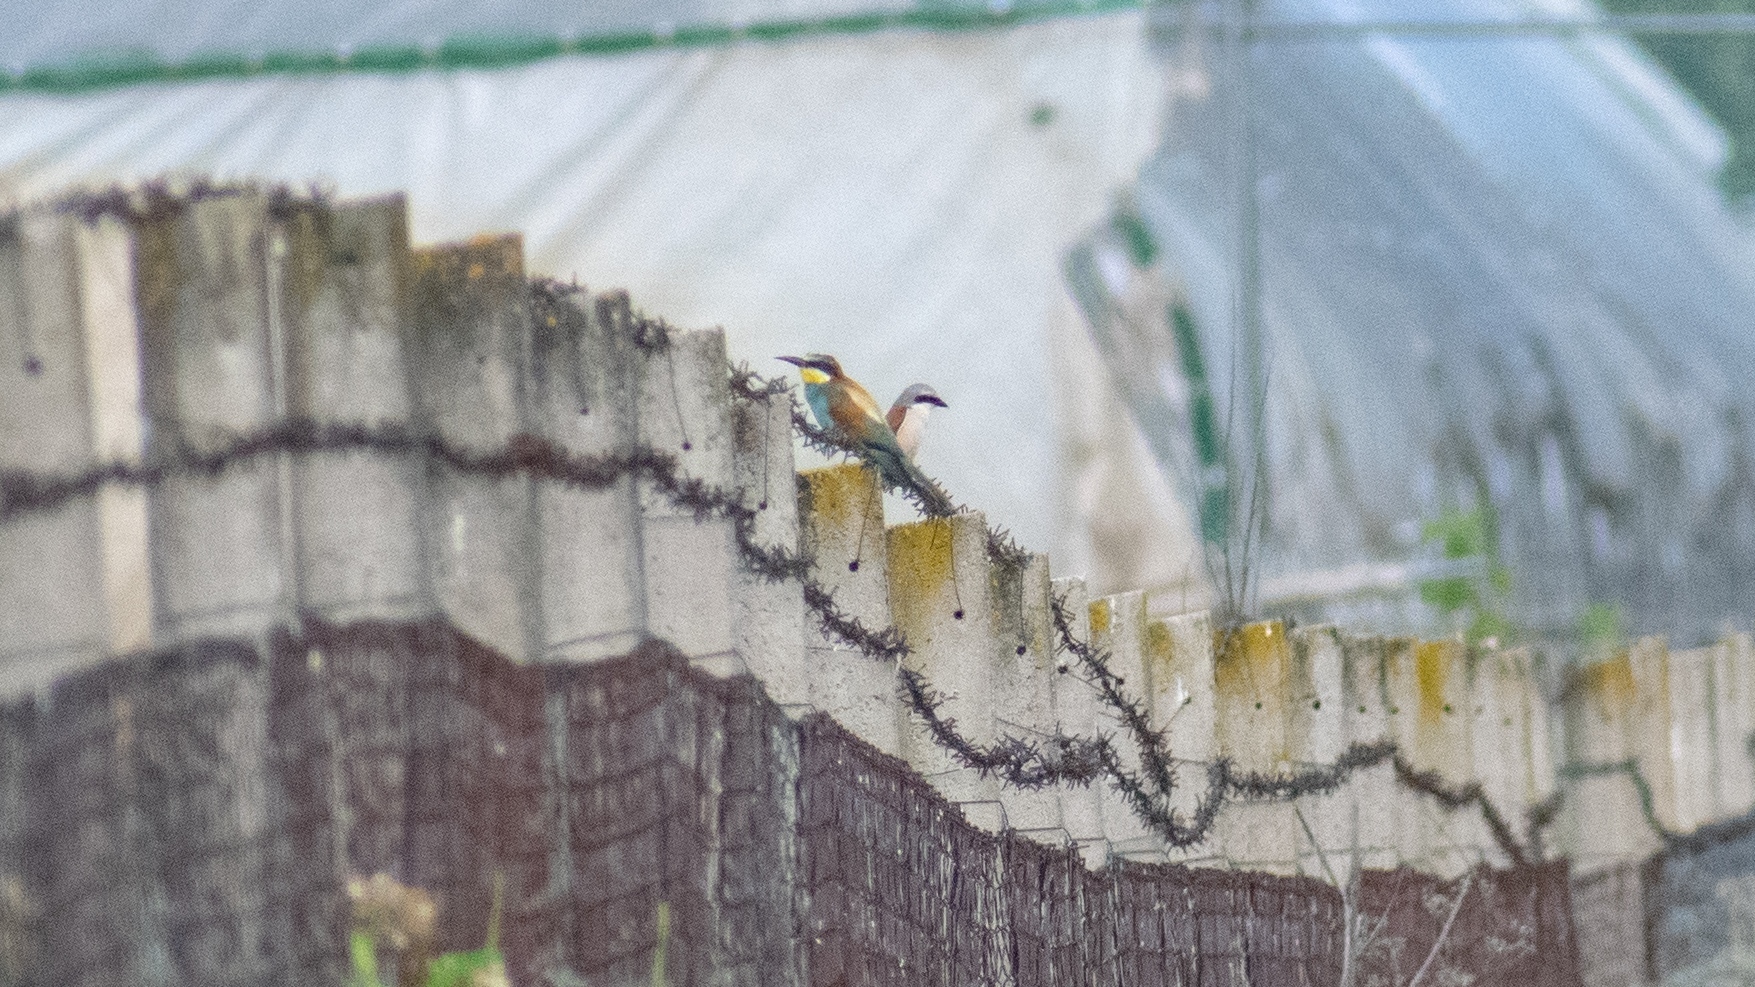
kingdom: Animalia
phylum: Chordata
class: Aves
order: Coraciiformes
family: Meropidae
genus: Merops
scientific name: Merops apiaster
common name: European bee-eater
